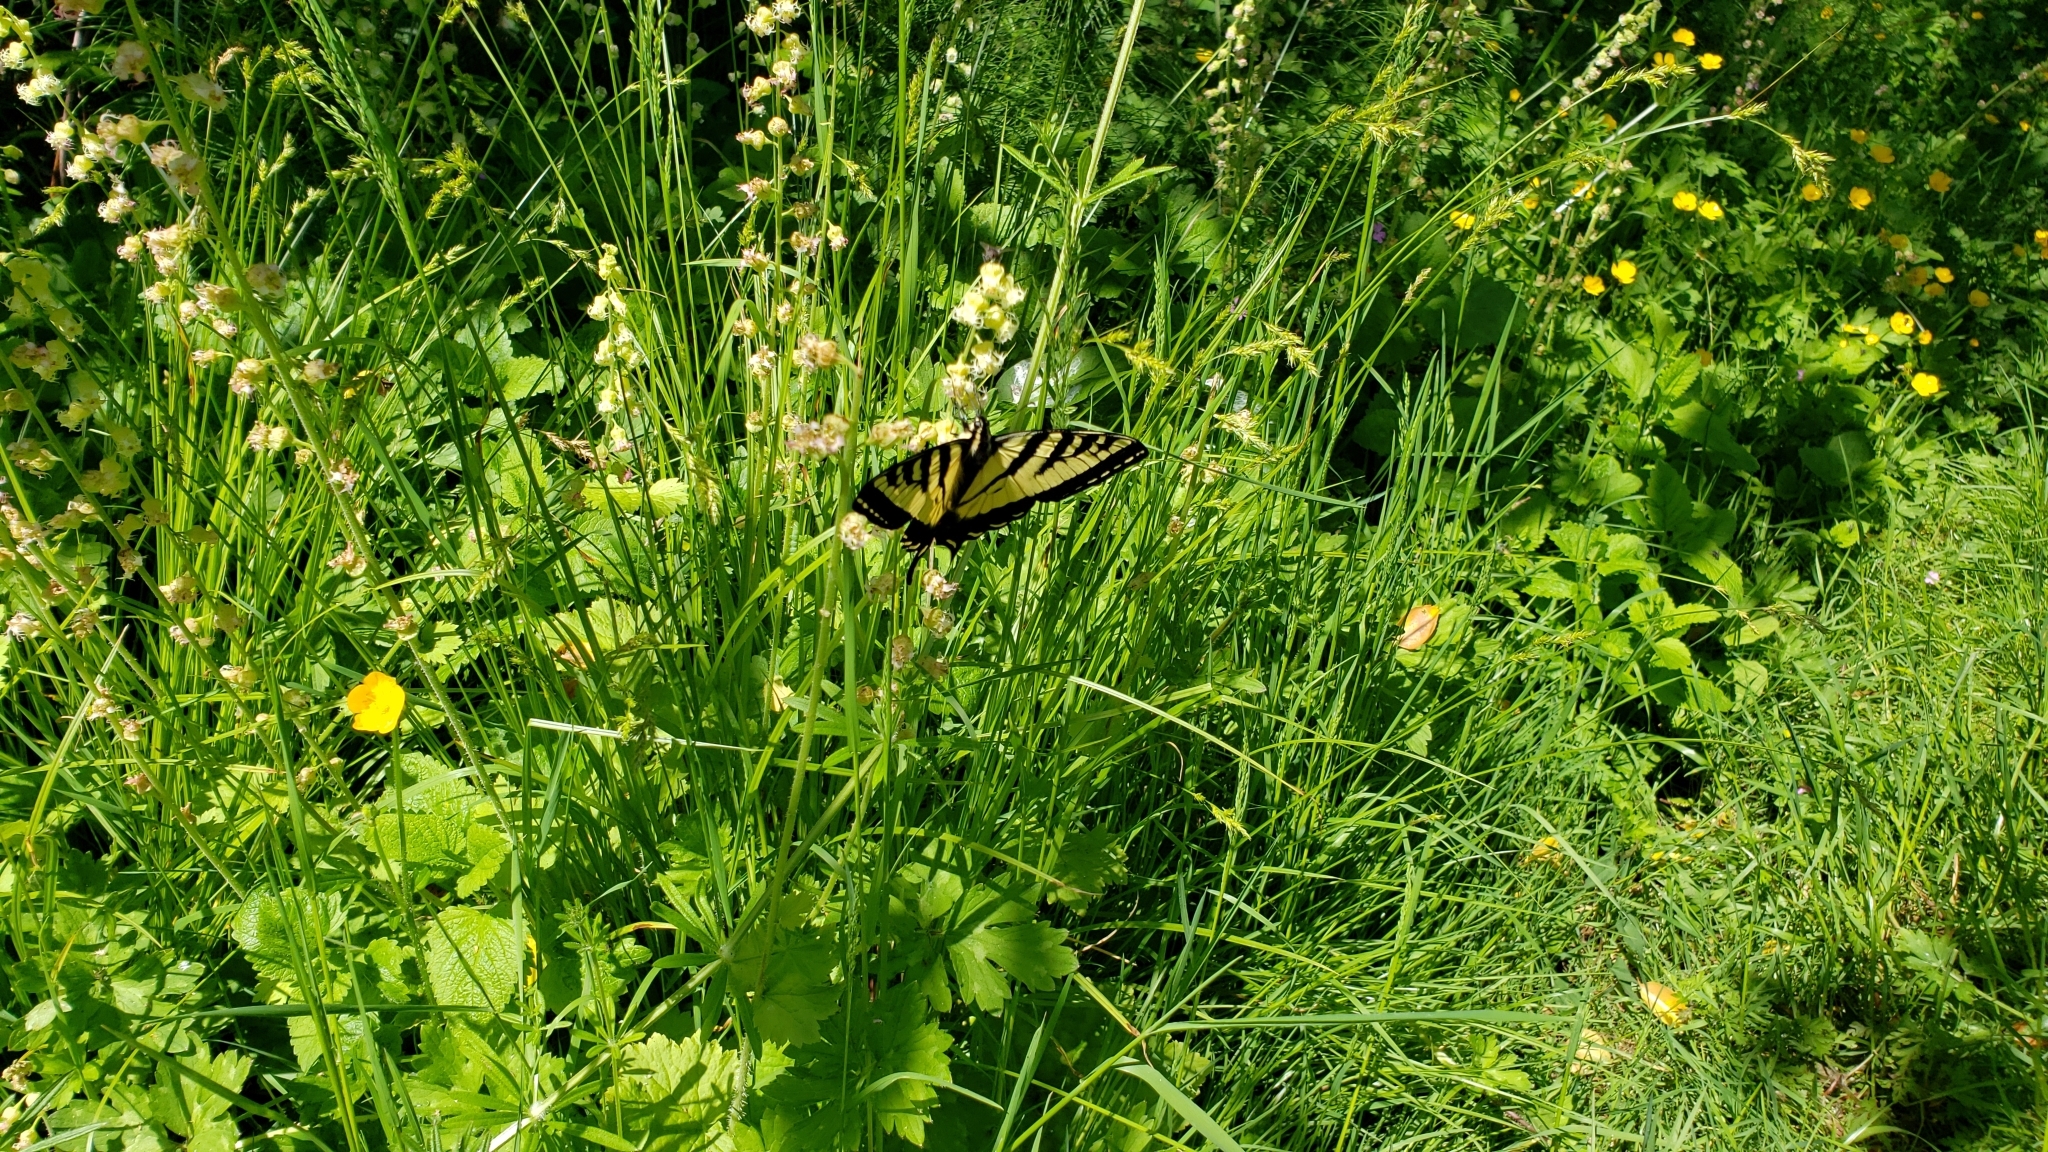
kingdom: Animalia
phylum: Arthropoda
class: Insecta
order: Lepidoptera
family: Papilionidae
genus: Papilio
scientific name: Papilio rutulus
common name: Western tiger swallowtail
